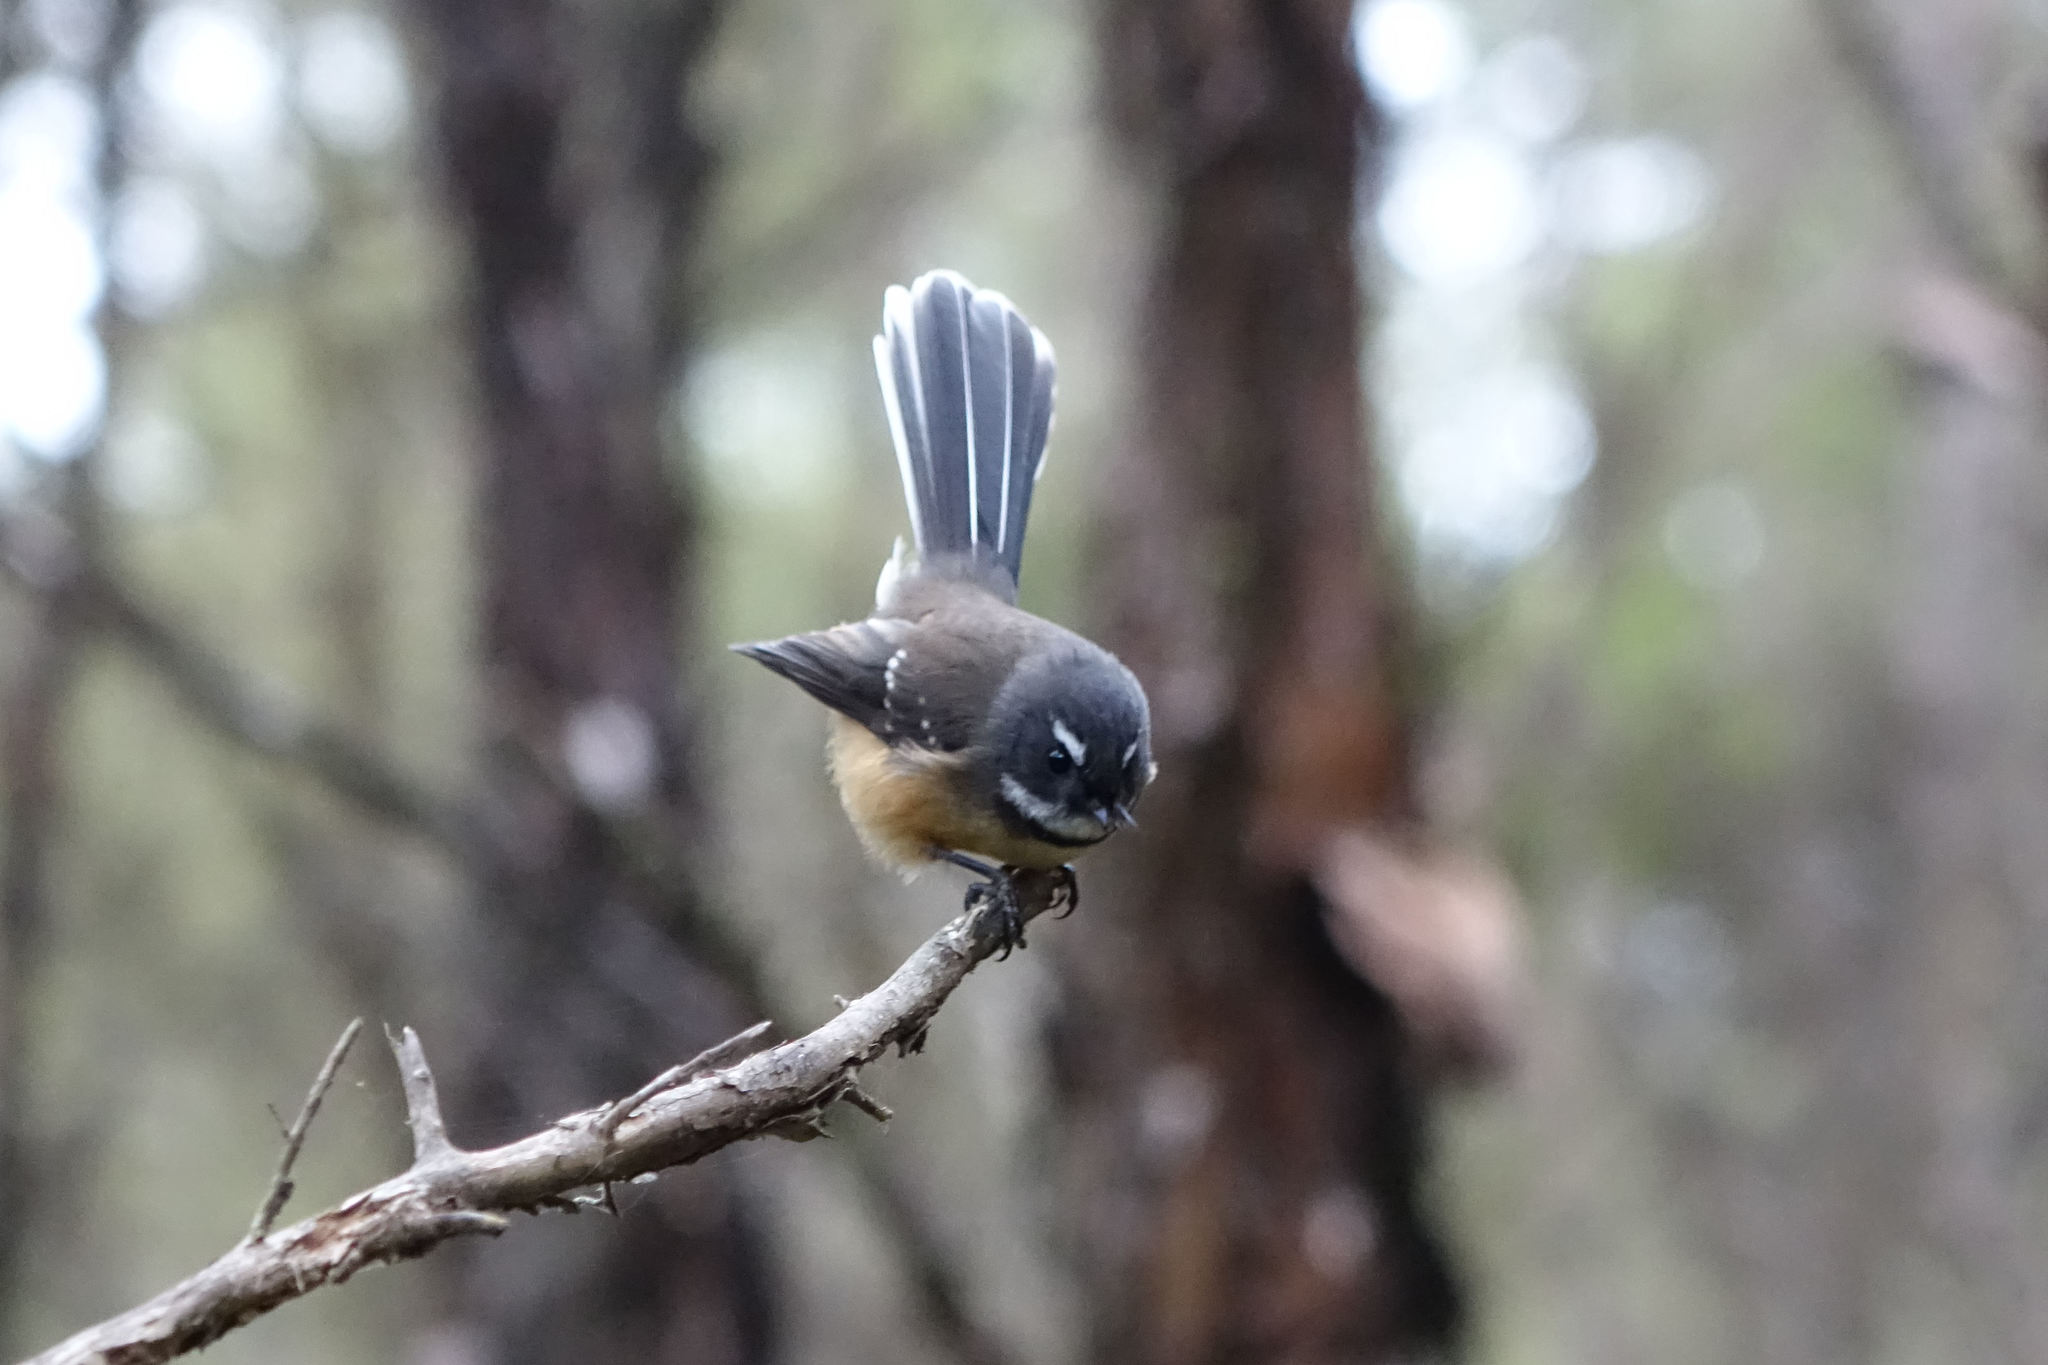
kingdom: Animalia
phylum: Chordata
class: Aves
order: Passeriformes
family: Rhipiduridae
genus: Rhipidura
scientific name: Rhipidura fuliginosa
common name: New zealand fantail
